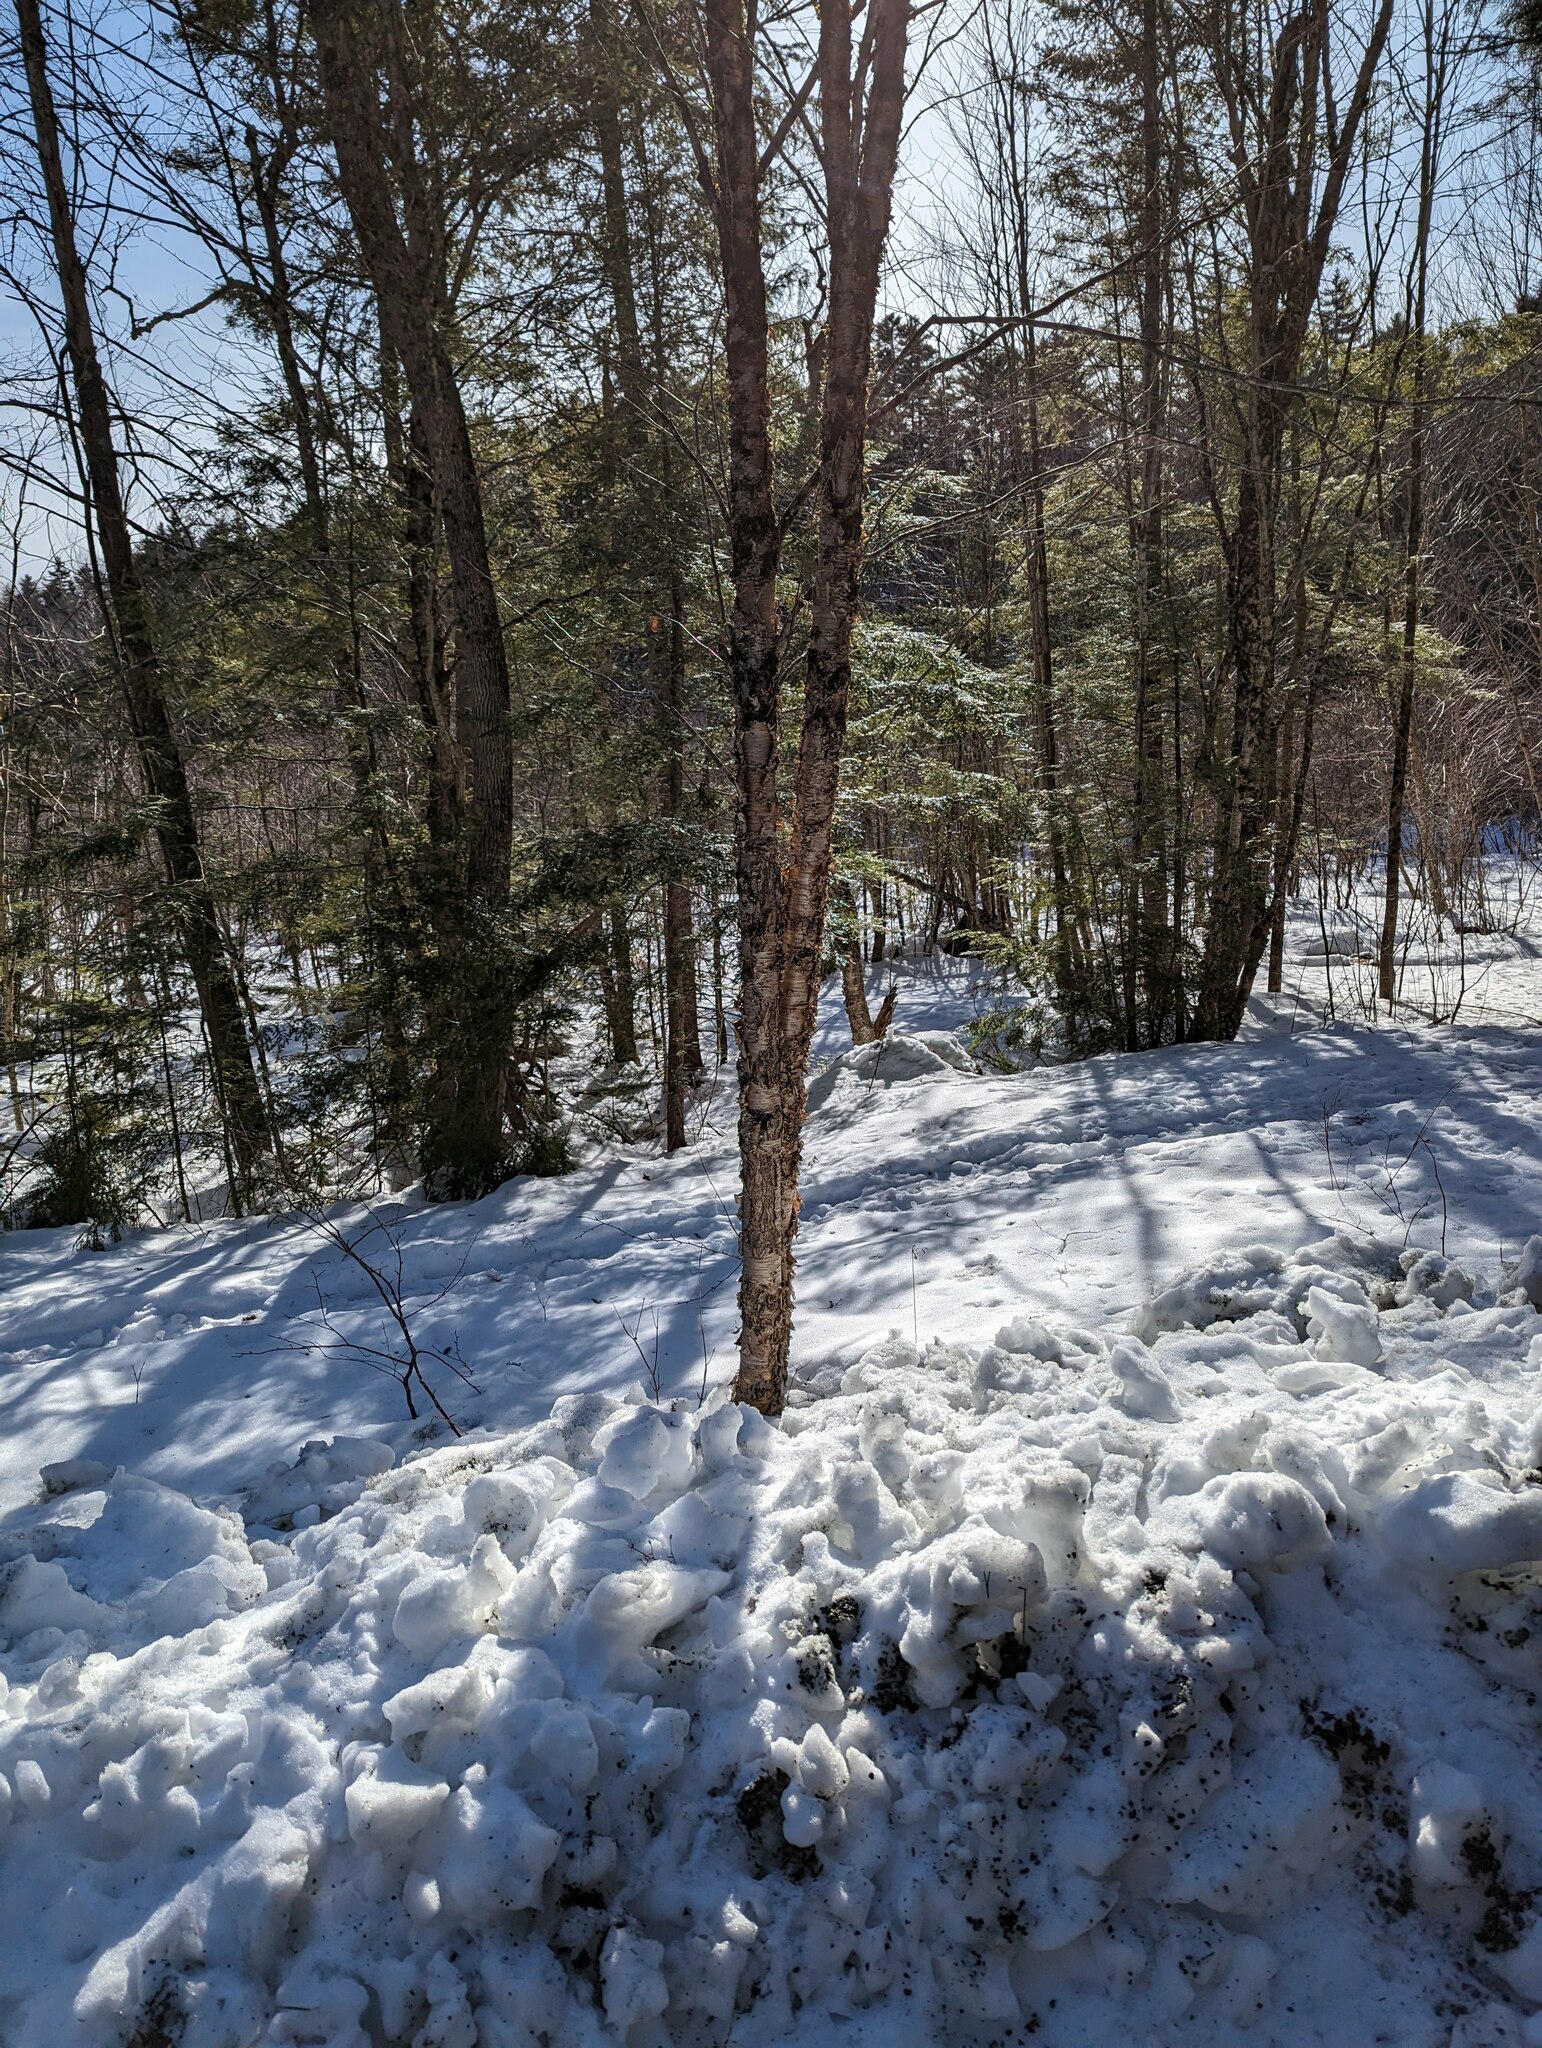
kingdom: Plantae
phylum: Tracheophyta
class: Magnoliopsida
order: Fagales
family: Betulaceae
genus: Betula
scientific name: Betula alleghaniensis
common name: Yellow birch
